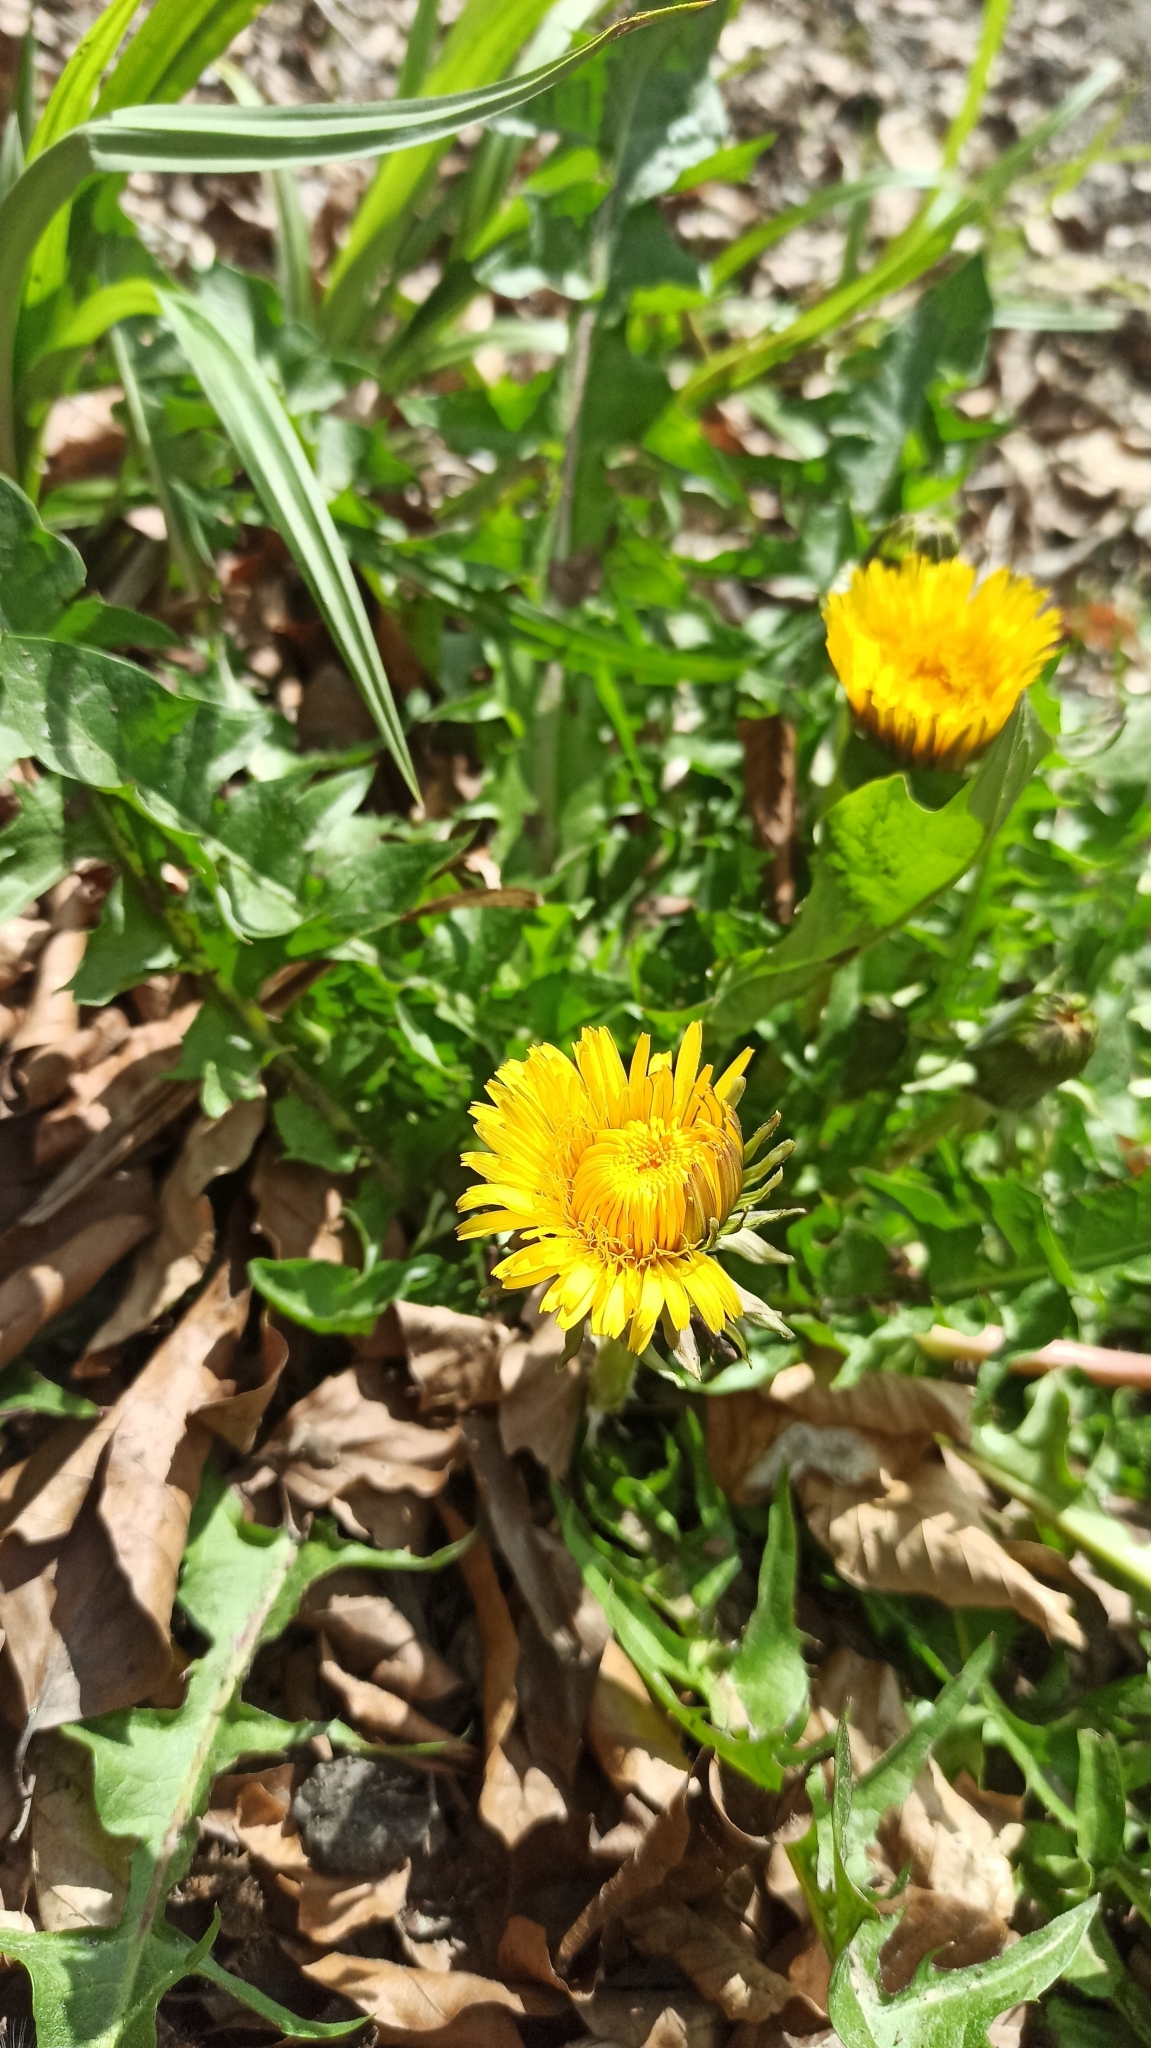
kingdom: Plantae
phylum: Tracheophyta
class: Magnoliopsida
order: Asterales
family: Asteraceae
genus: Taraxacum
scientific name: Taraxacum officinale
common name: Common dandelion
